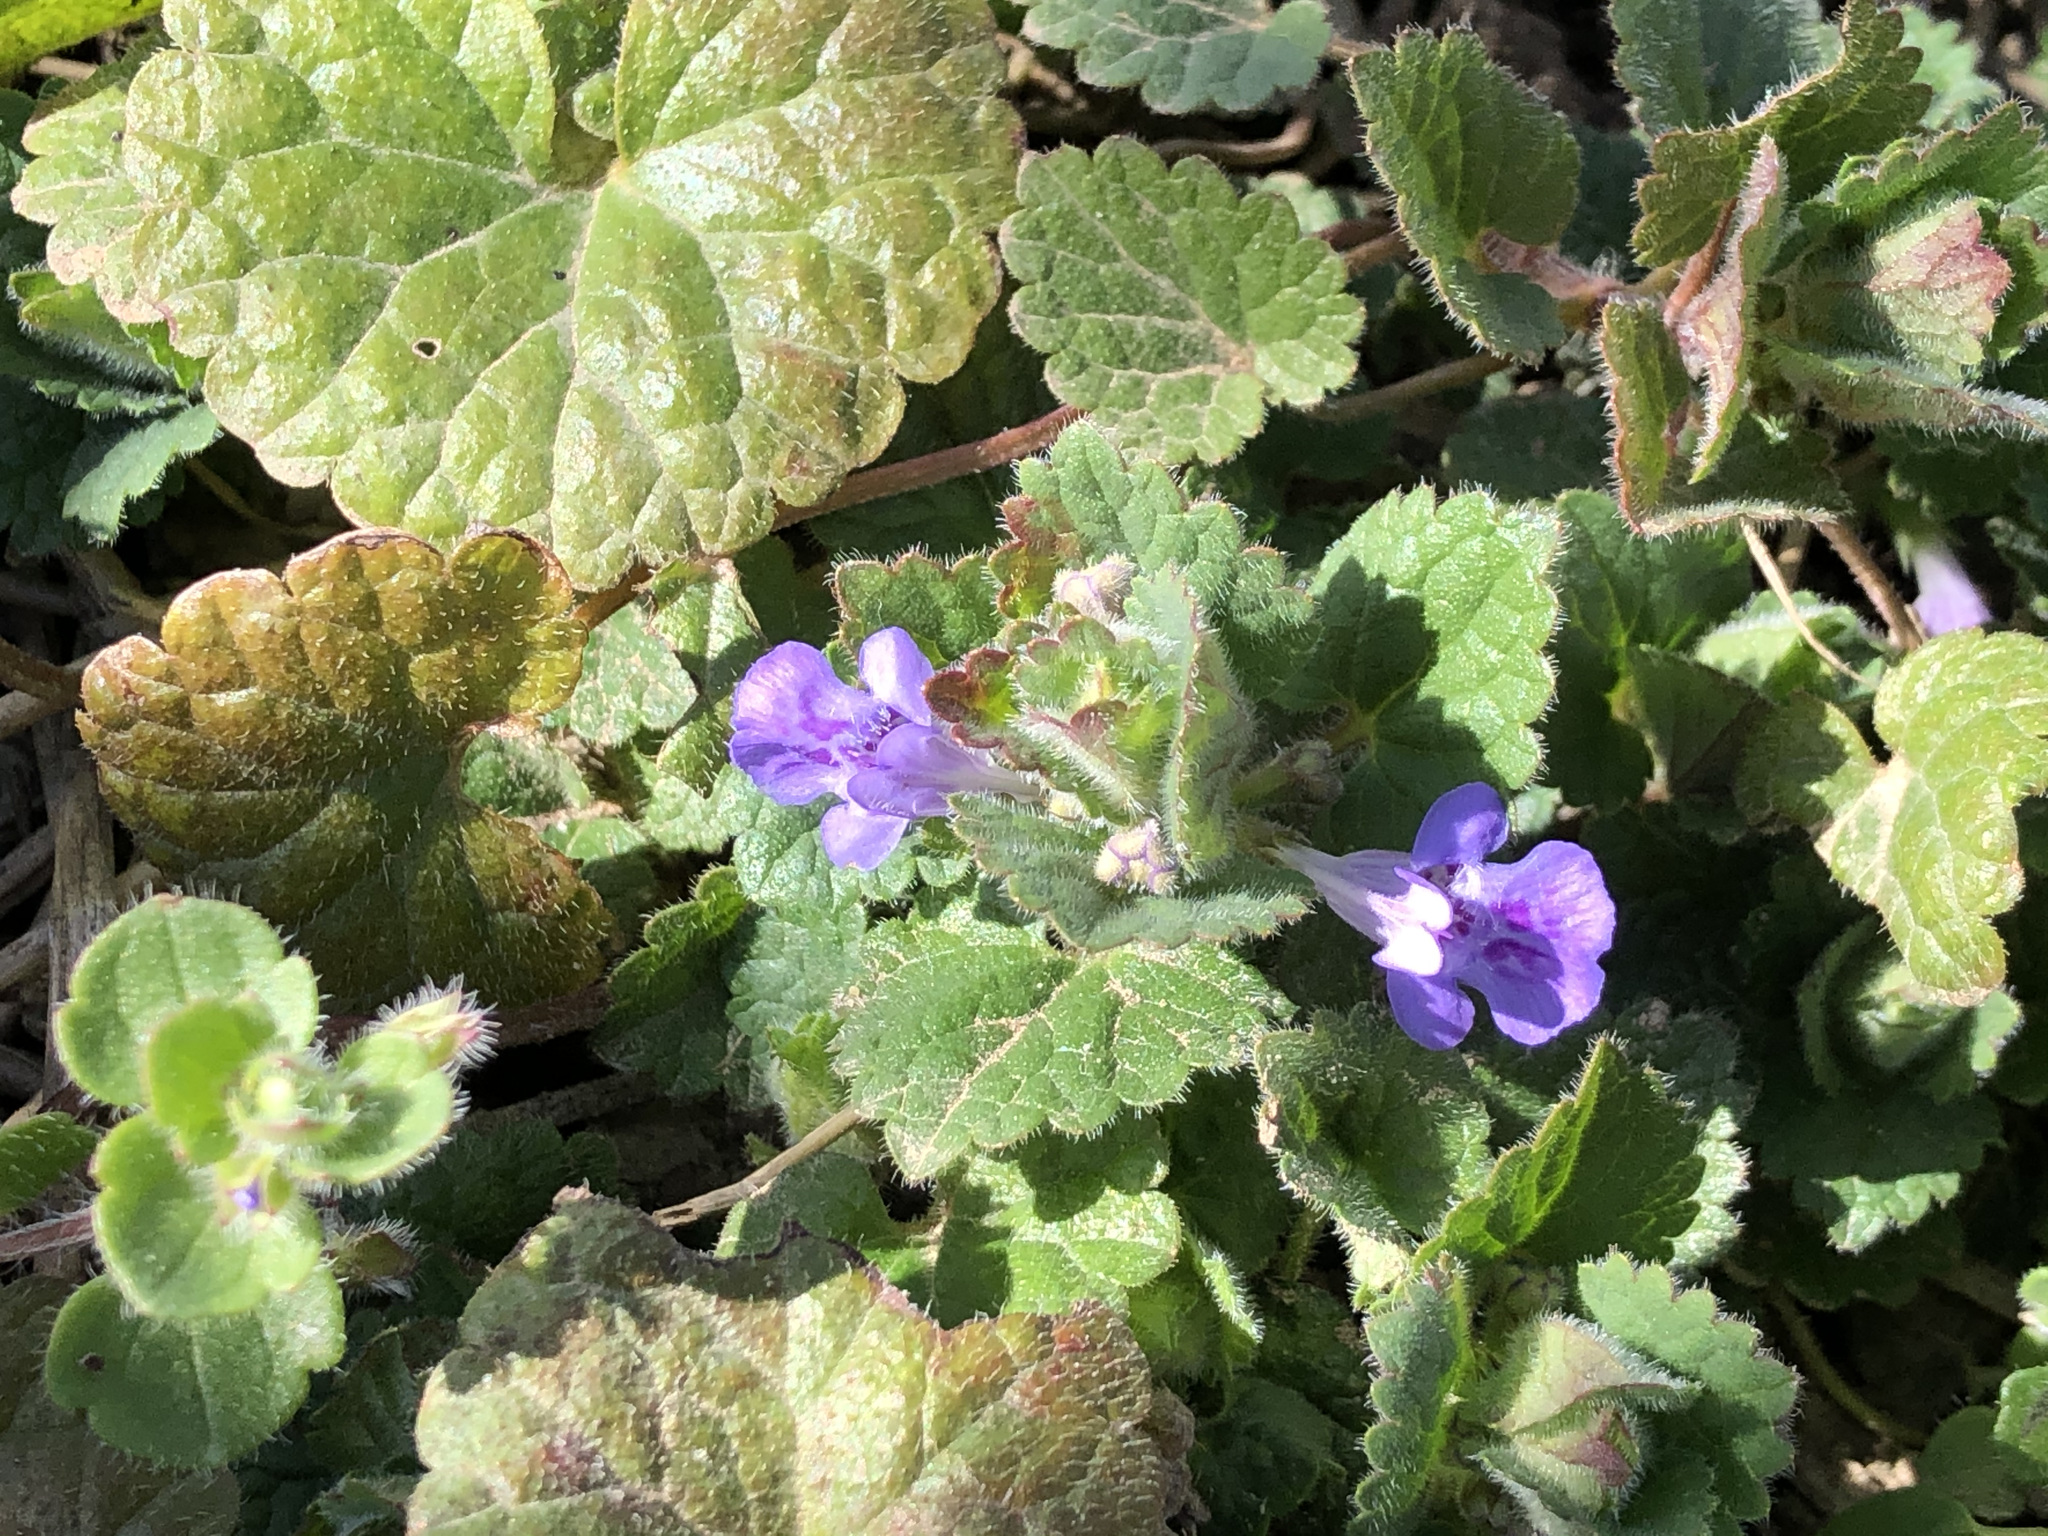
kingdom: Plantae
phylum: Tracheophyta
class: Magnoliopsida
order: Lamiales
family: Lamiaceae
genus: Glechoma
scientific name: Glechoma hederacea
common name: Ground ivy
